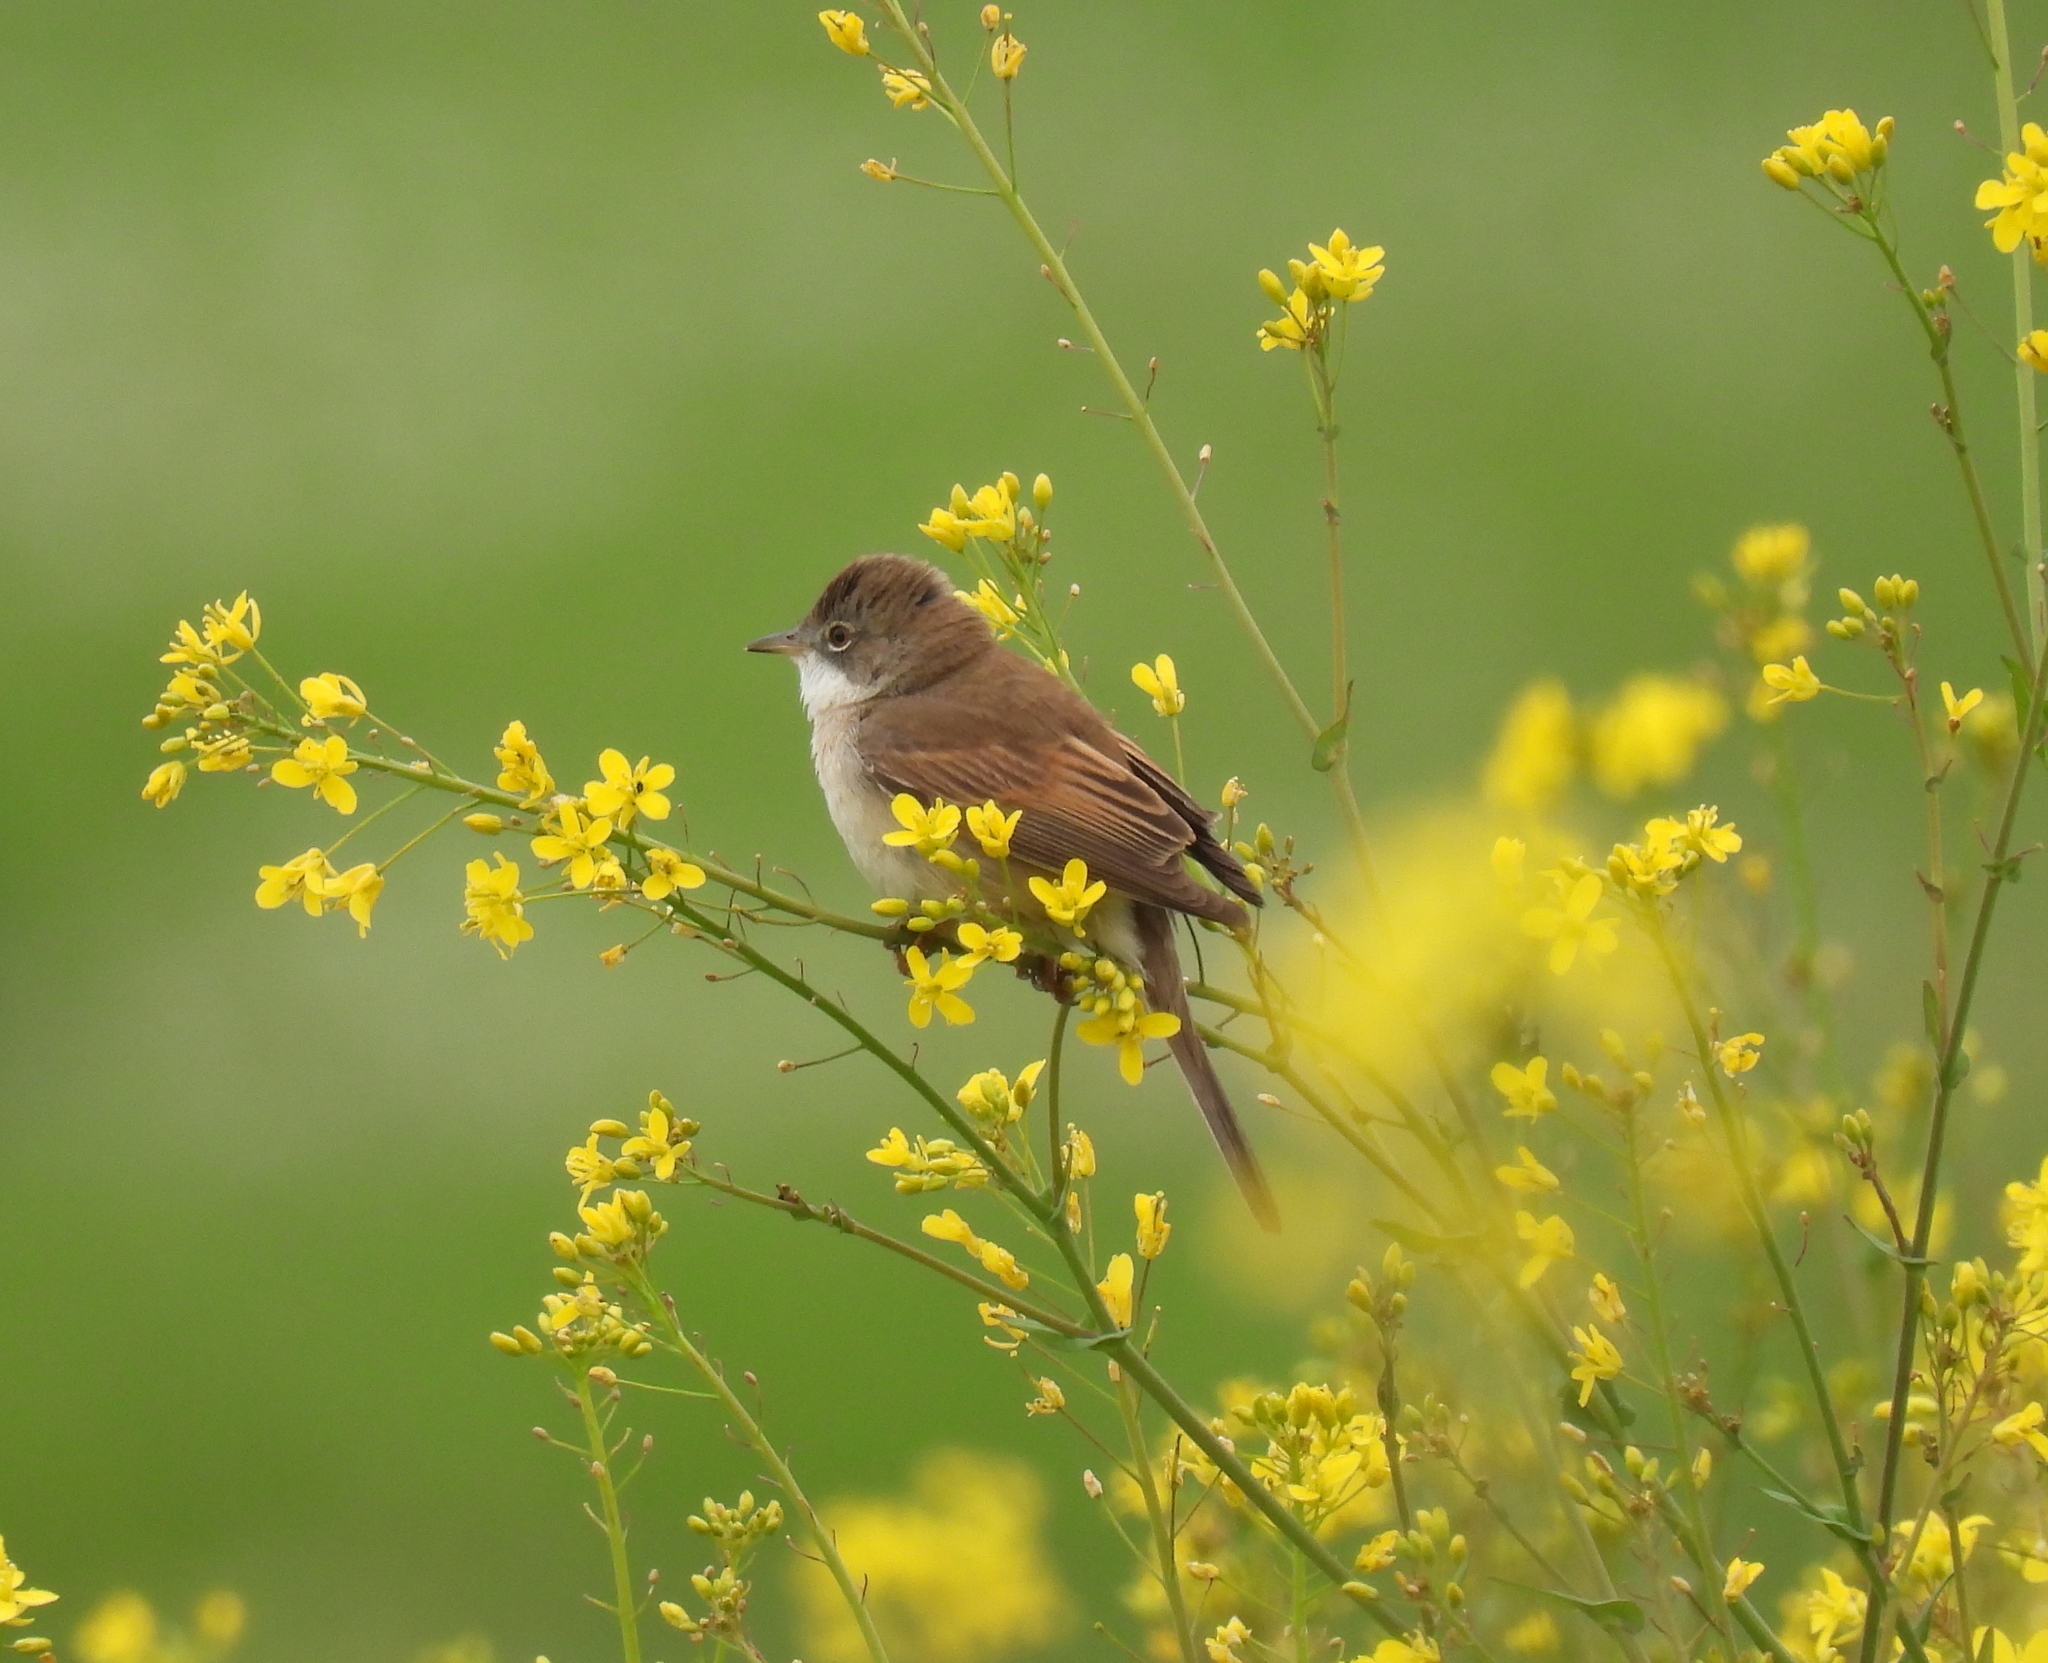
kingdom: Animalia
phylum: Chordata
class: Aves
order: Passeriformes
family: Sylviidae
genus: Sylvia
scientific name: Sylvia communis
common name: Common whitethroat
